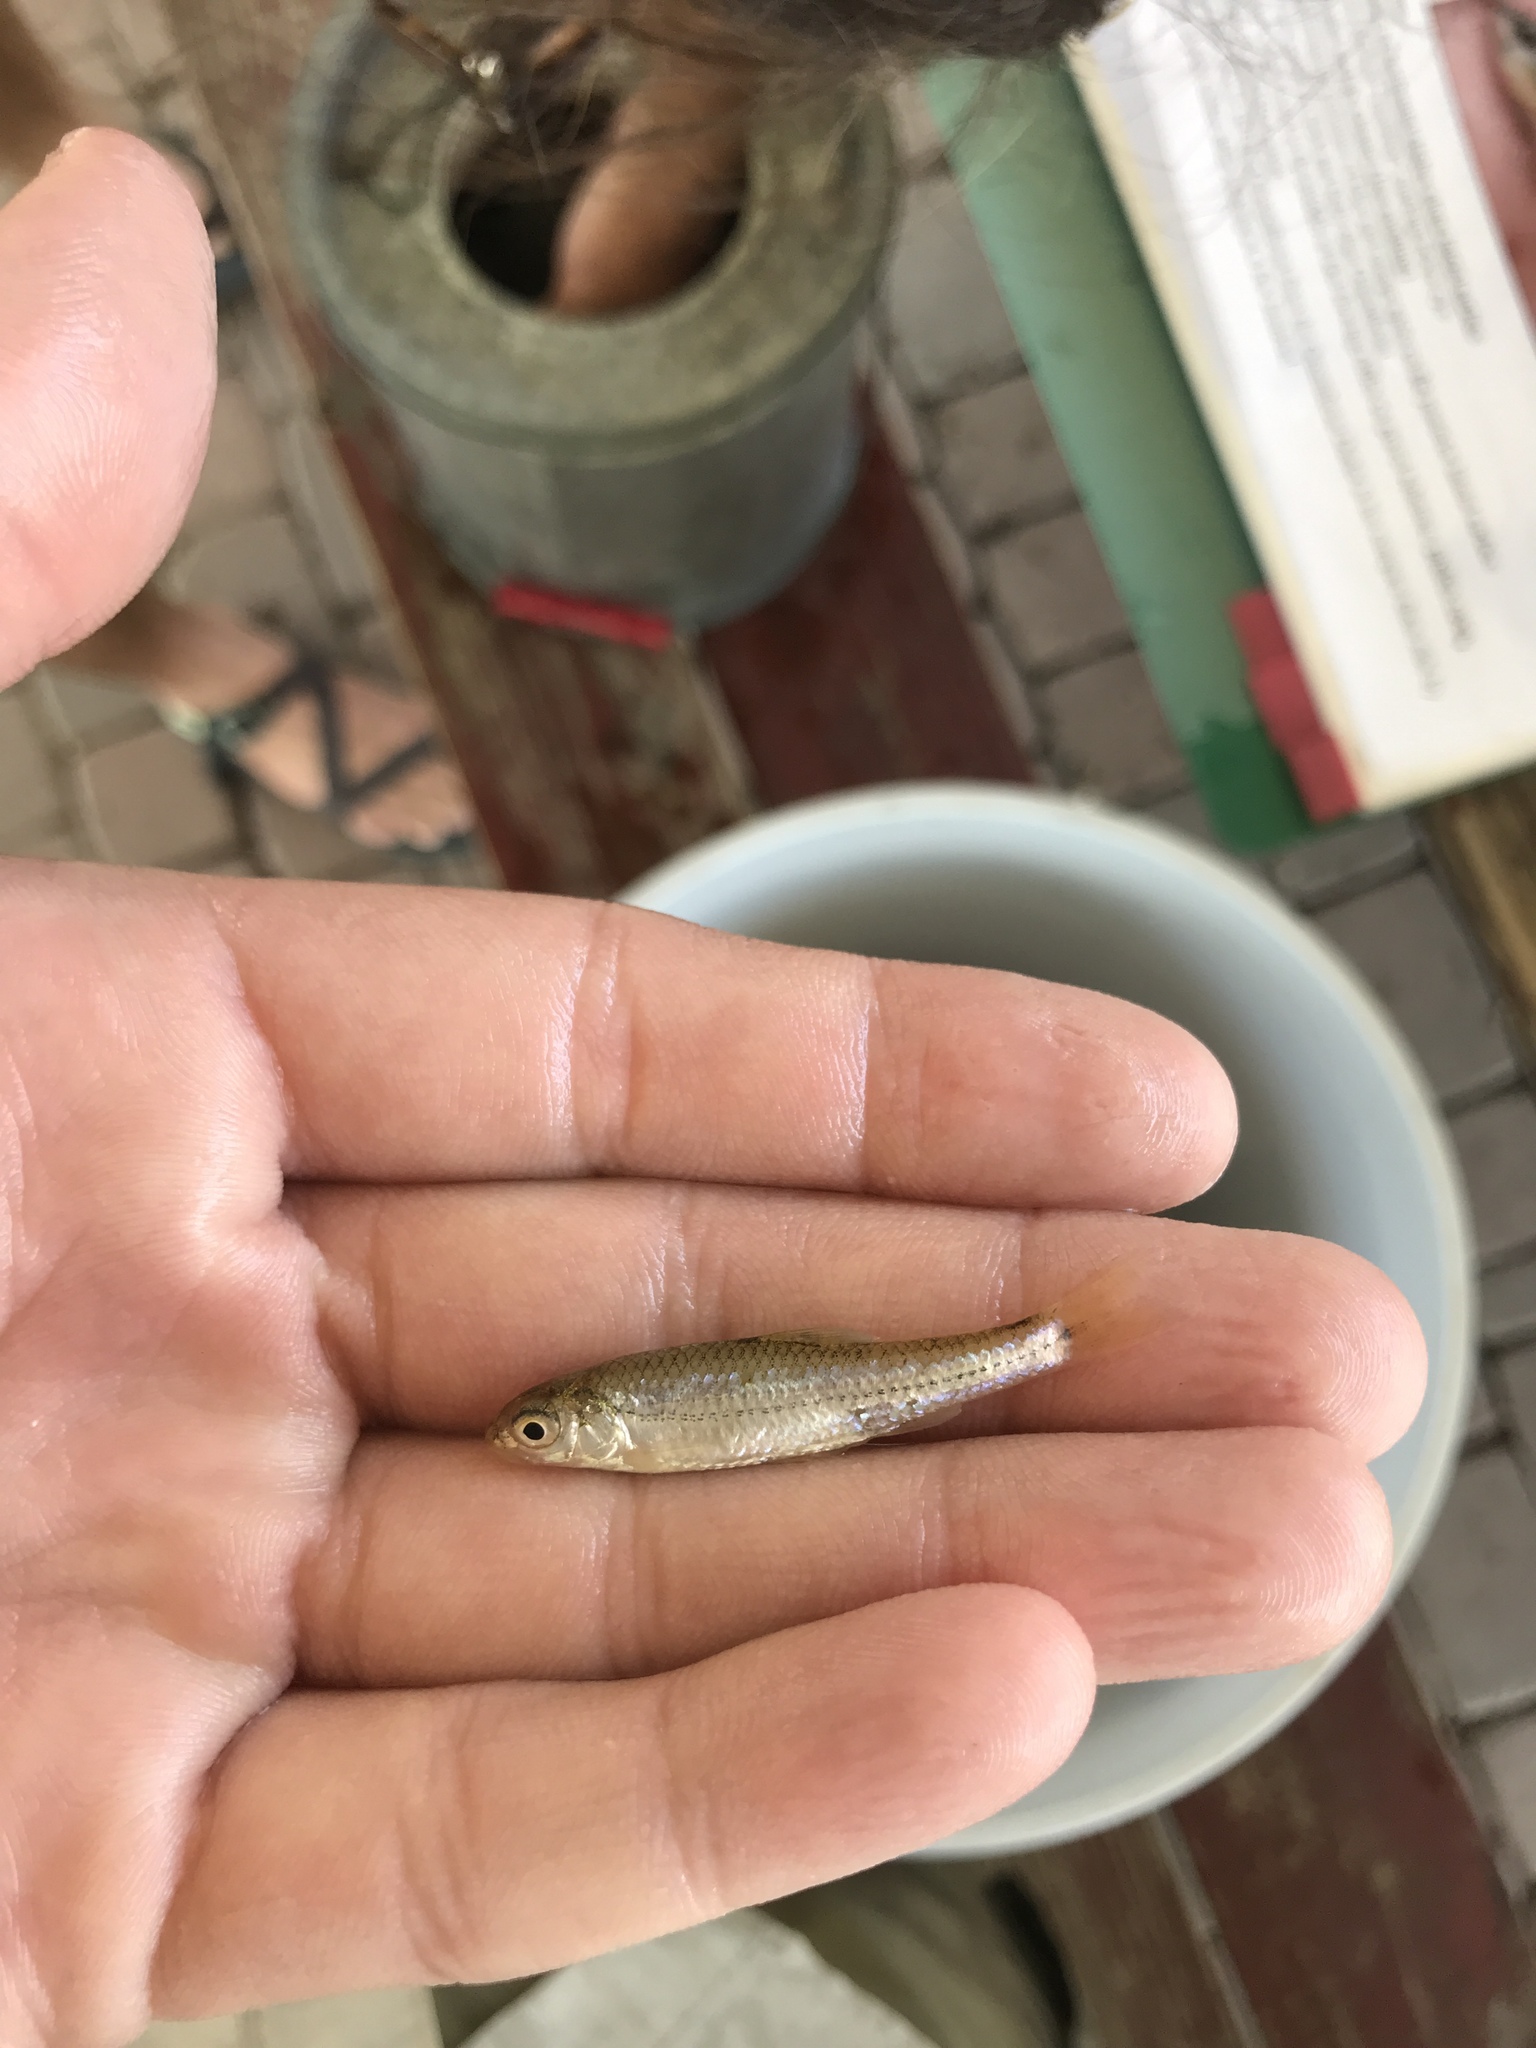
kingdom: Animalia
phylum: Chordata
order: Cypriniformes
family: Cyprinidae
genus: Notropis
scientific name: Notropis
